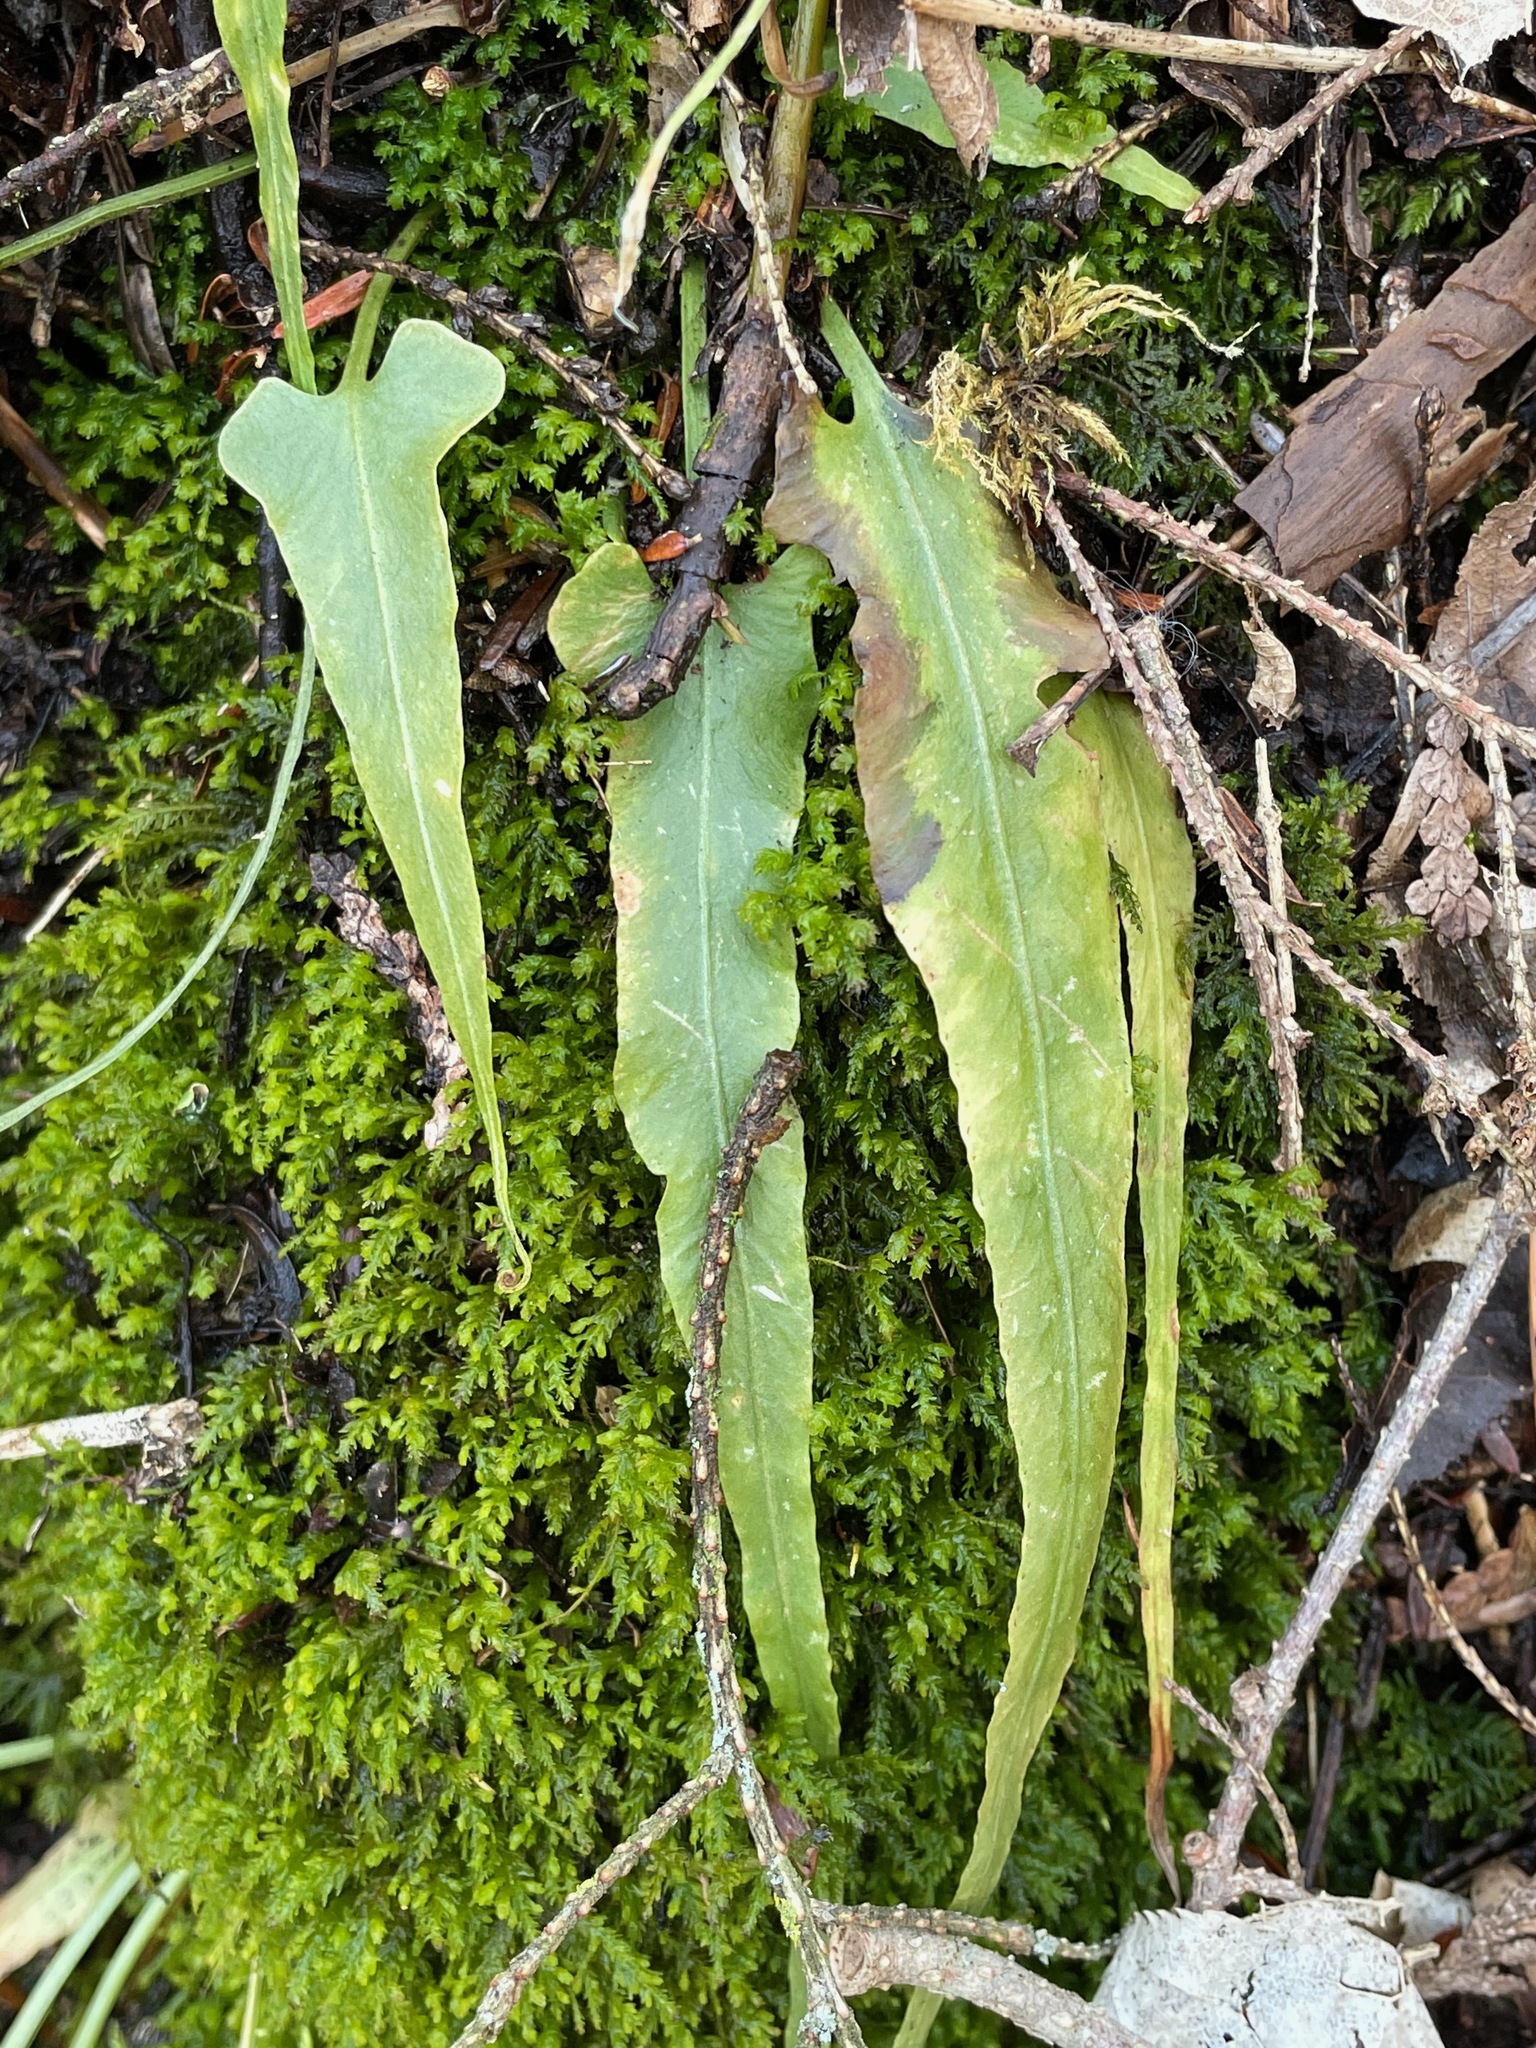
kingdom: Plantae
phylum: Tracheophyta
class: Polypodiopsida
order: Polypodiales
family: Aspleniaceae
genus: Asplenium
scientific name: Asplenium rhizophyllum
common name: Walking fern
